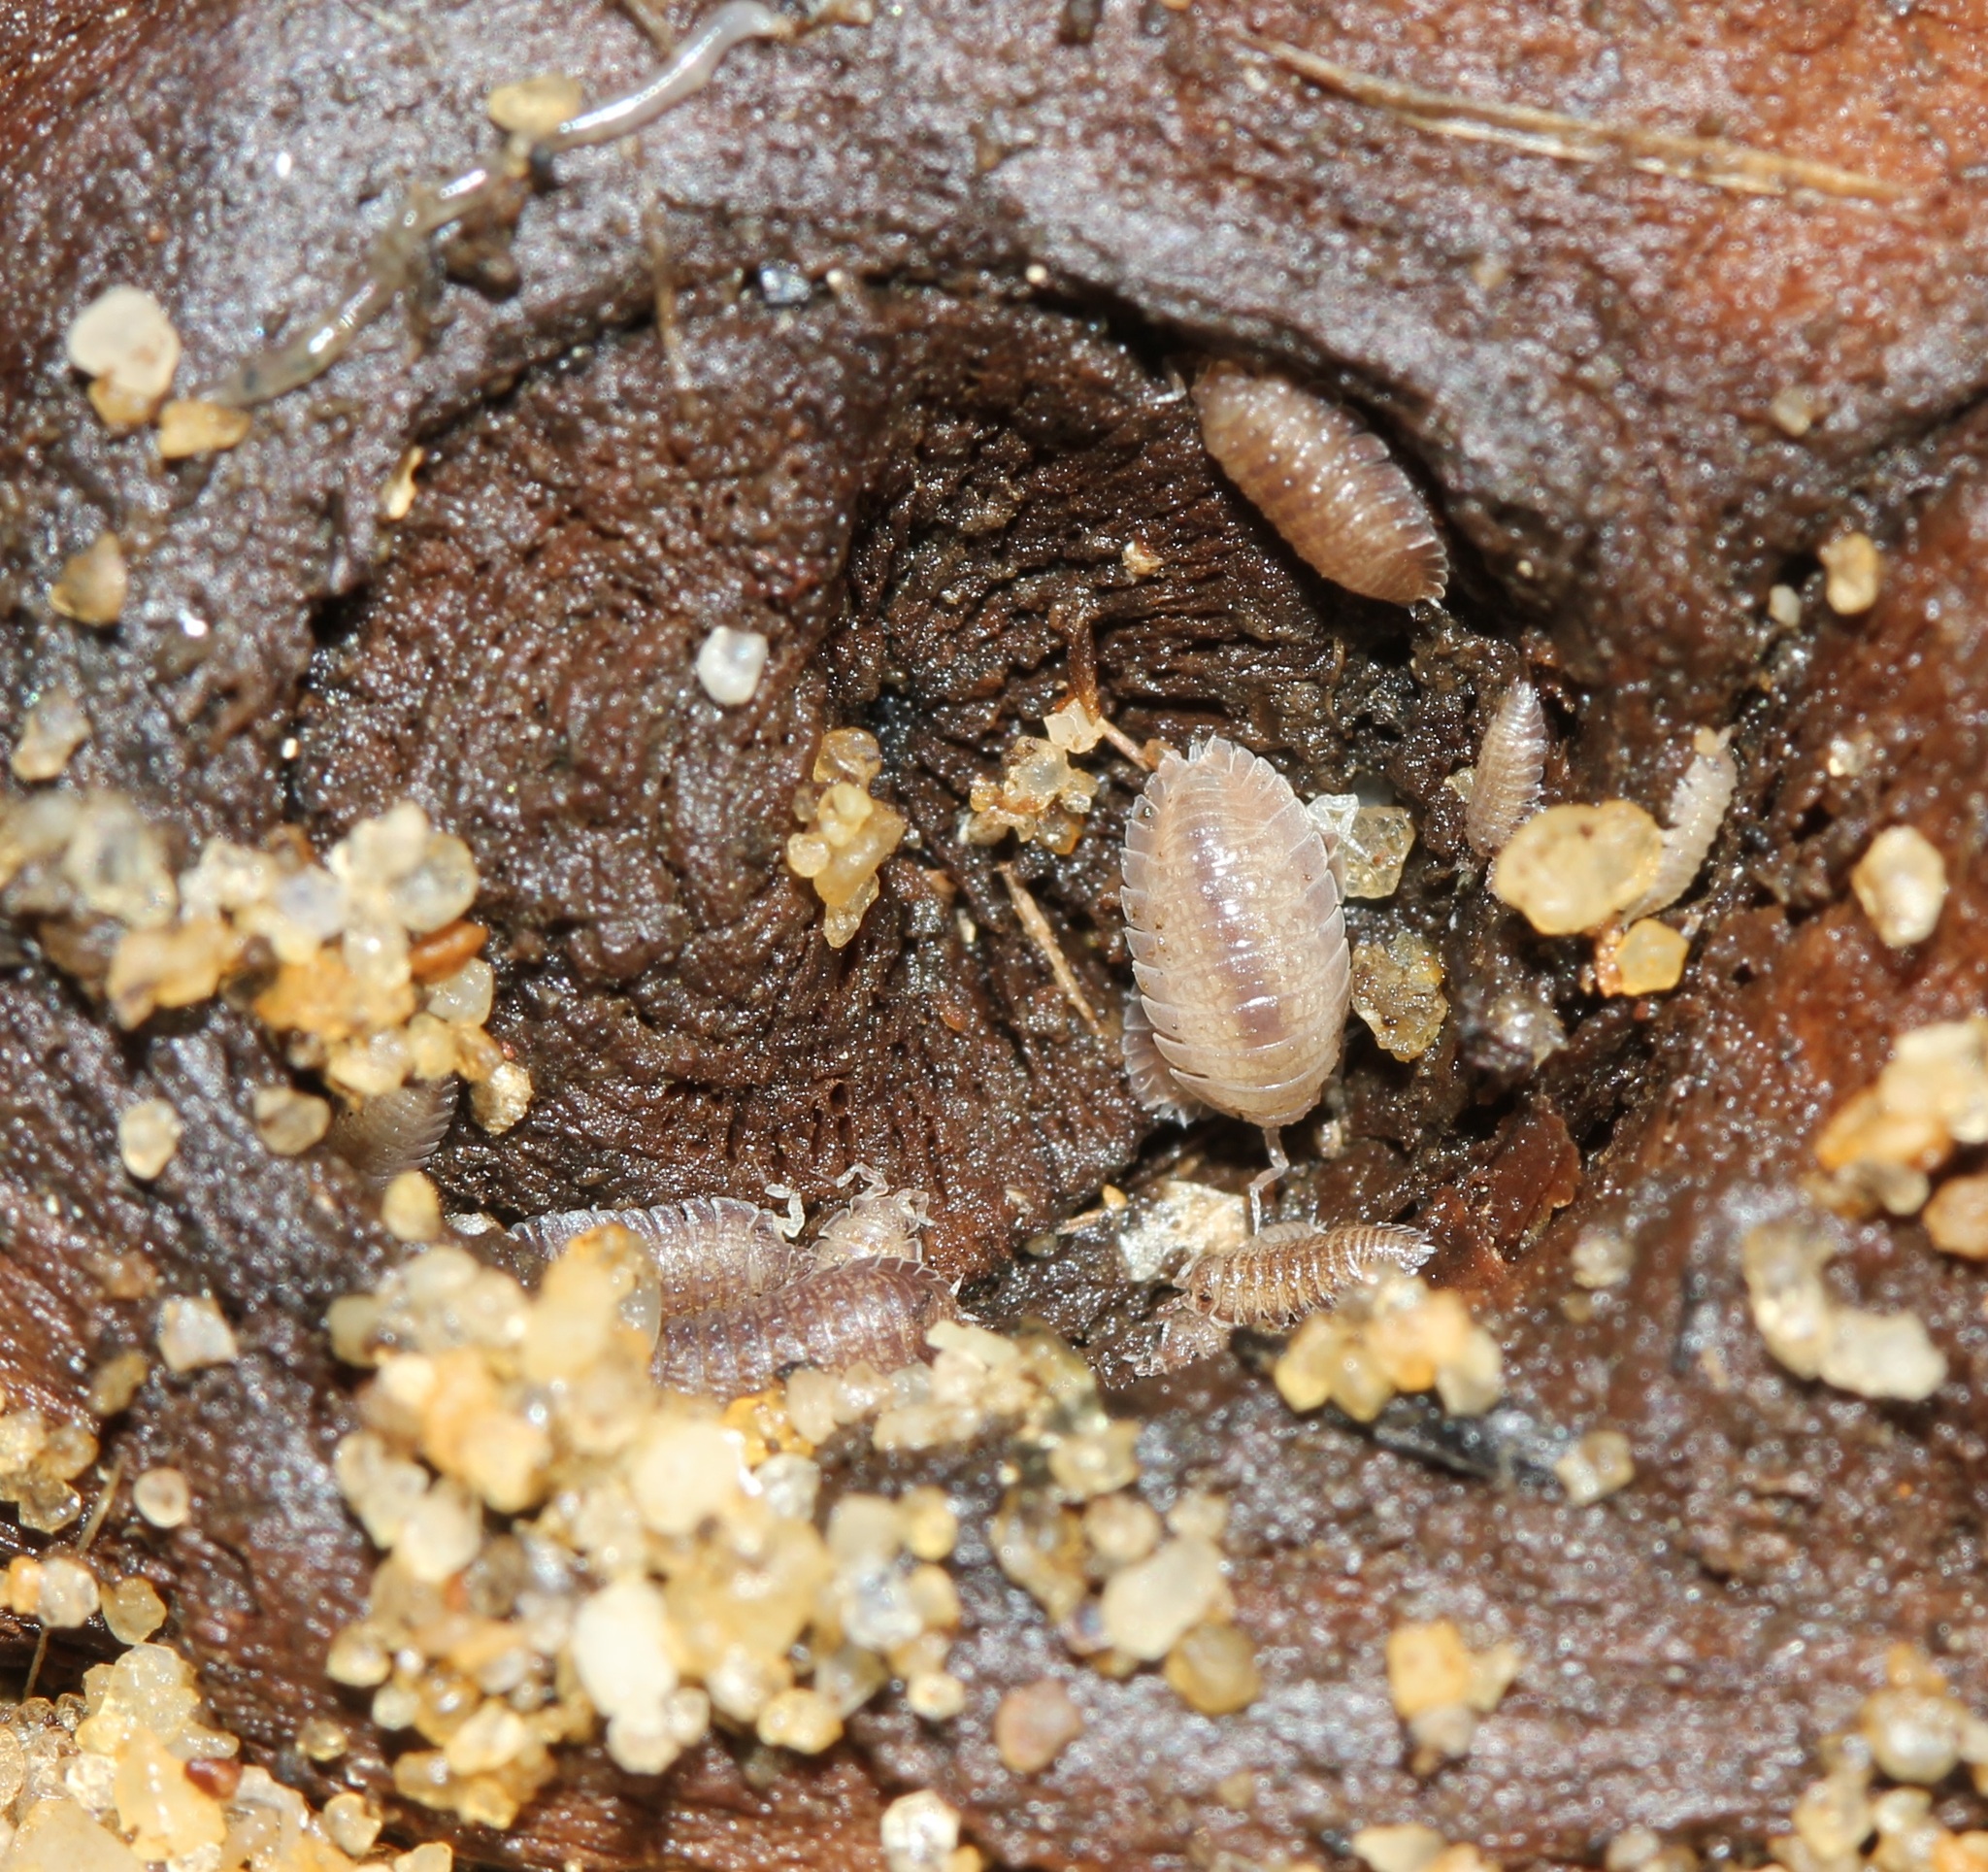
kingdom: Animalia
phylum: Arthropoda
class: Malacostraca
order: Isopoda
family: Detonidae
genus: Armadilloniscus
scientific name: Armadilloniscus ellipticus
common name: Pillbug
